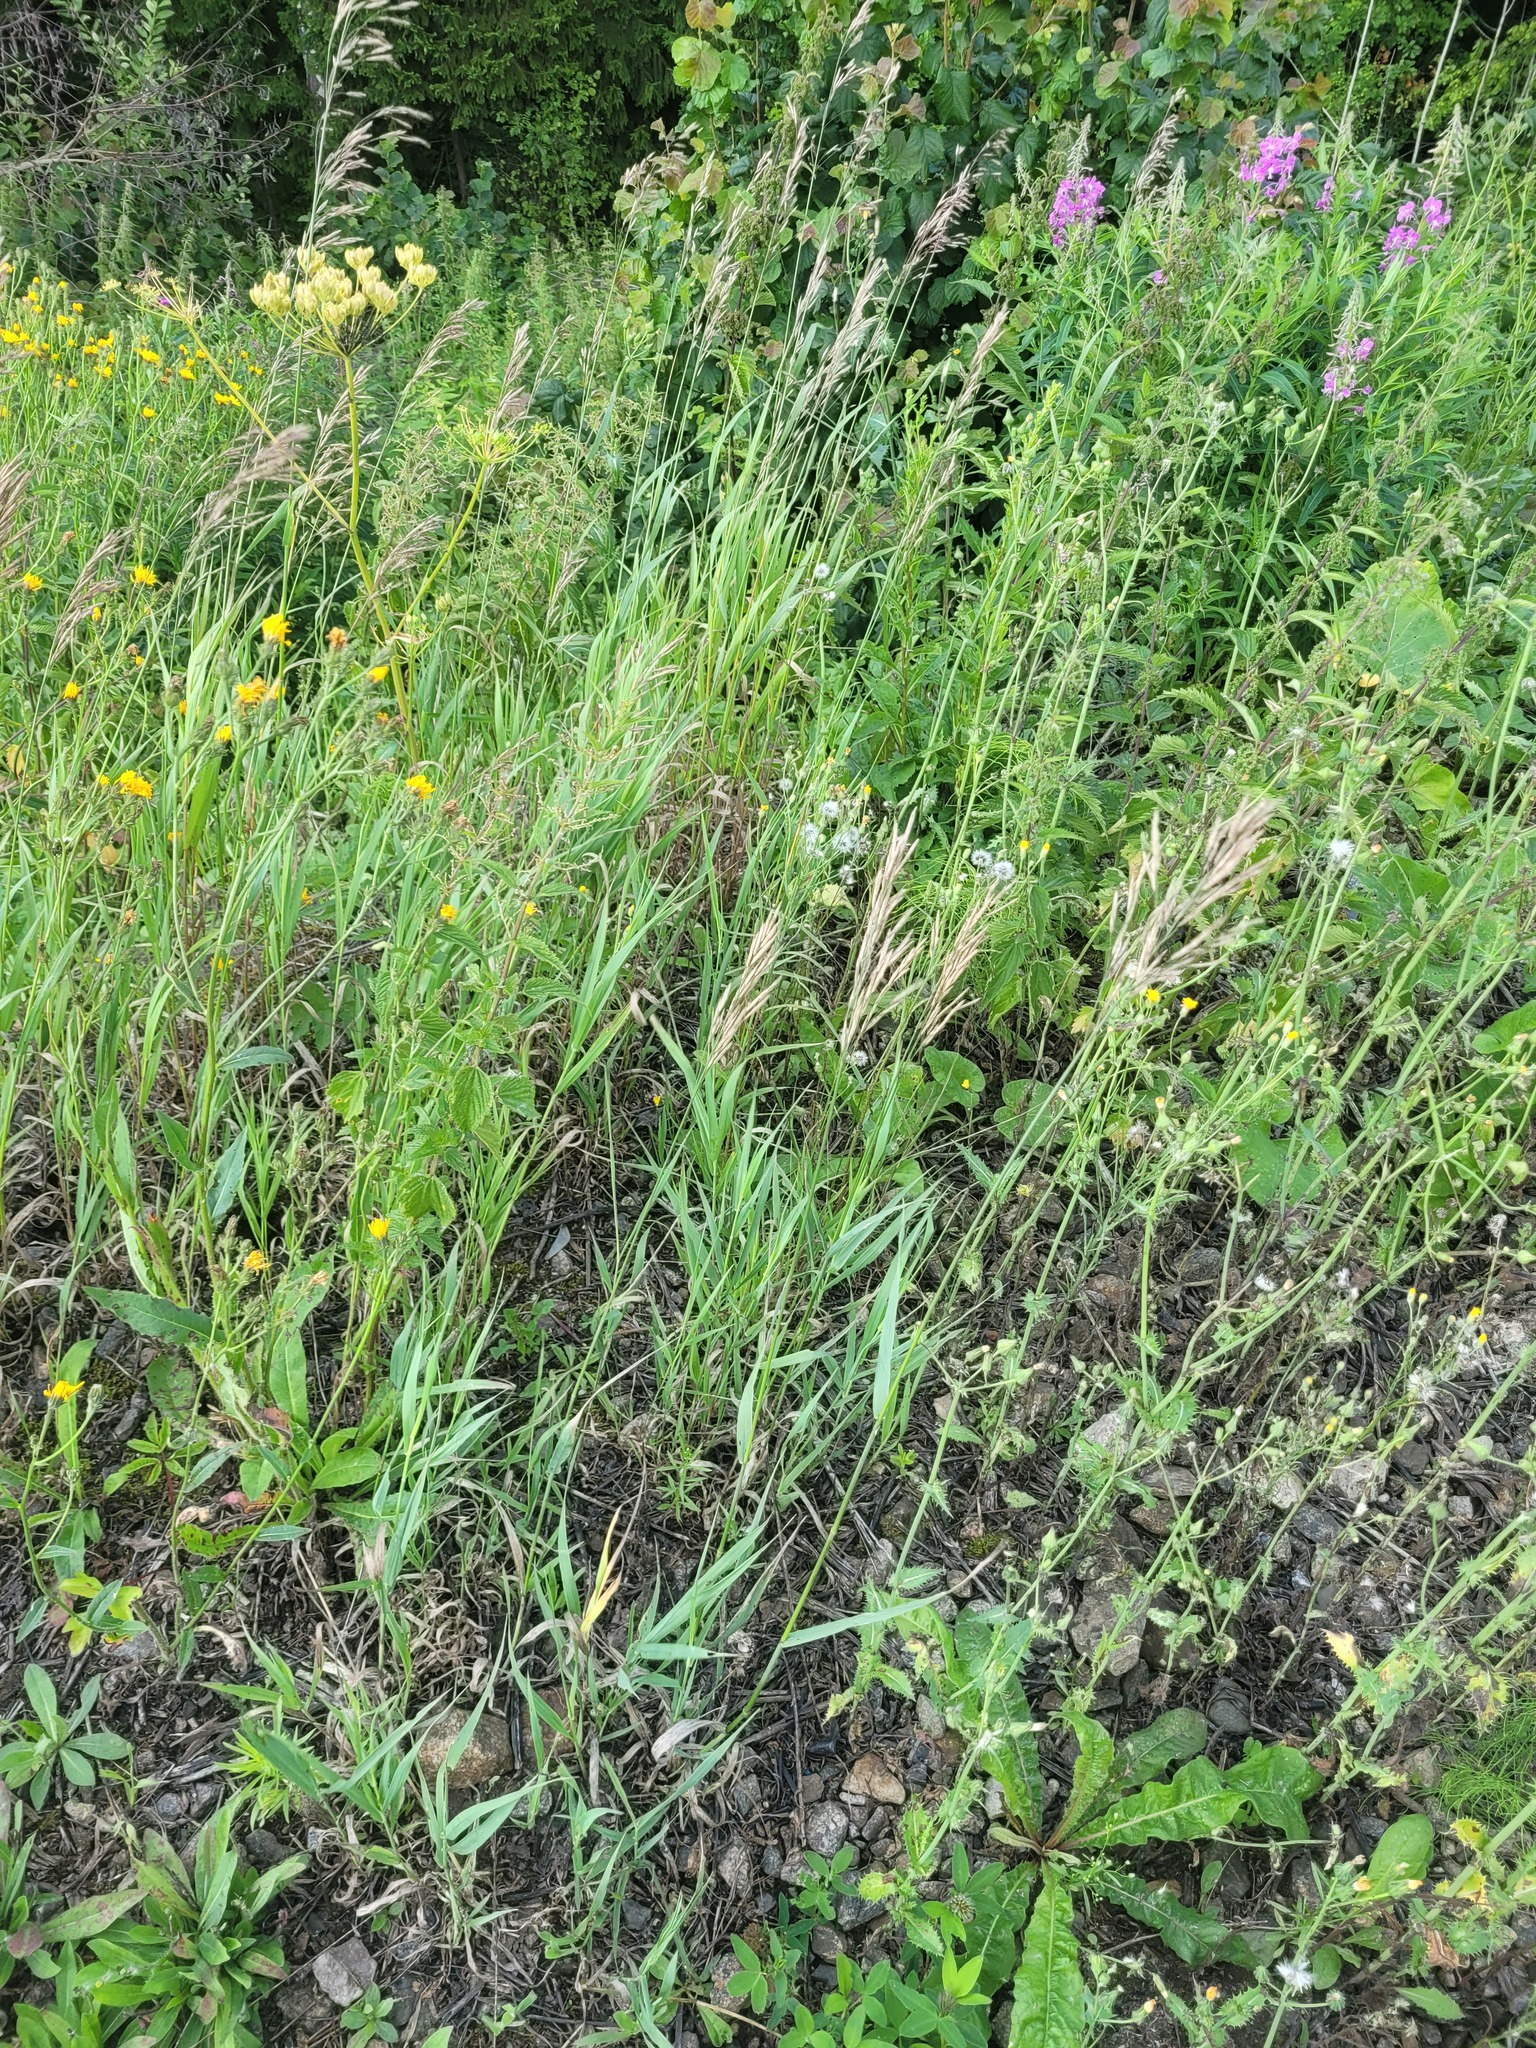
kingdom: Plantae
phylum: Tracheophyta
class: Liliopsida
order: Poales
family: Poaceae
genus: Bromus
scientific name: Bromus inermis
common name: Smooth brome
